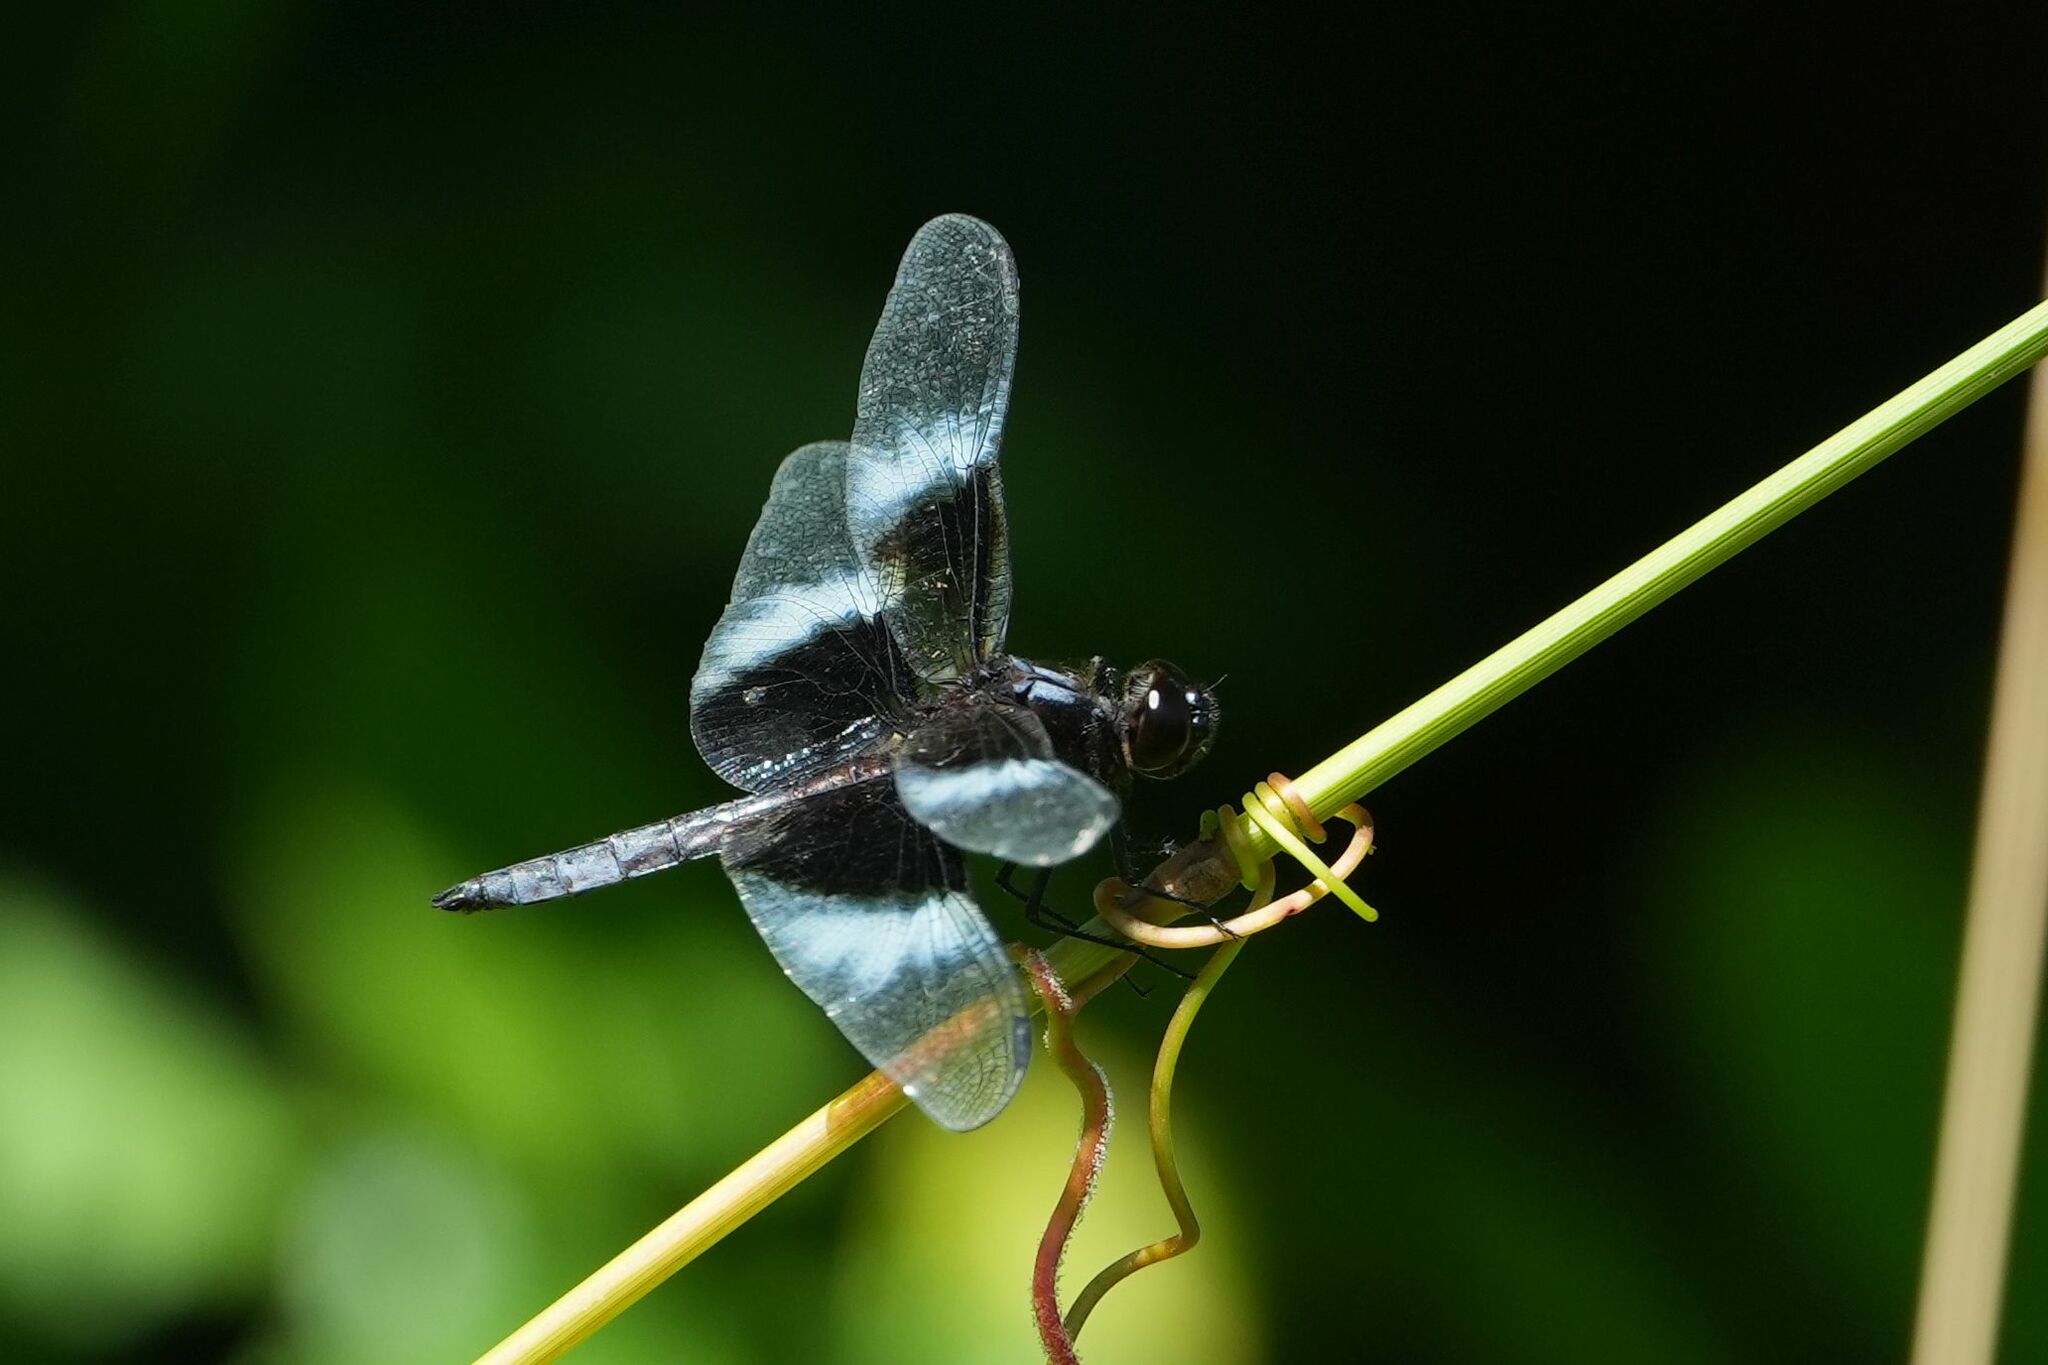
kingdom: Animalia
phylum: Arthropoda
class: Insecta
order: Odonata
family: Libellulidae
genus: Libellula
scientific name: Libellula luctuosa
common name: Widow skimmer
